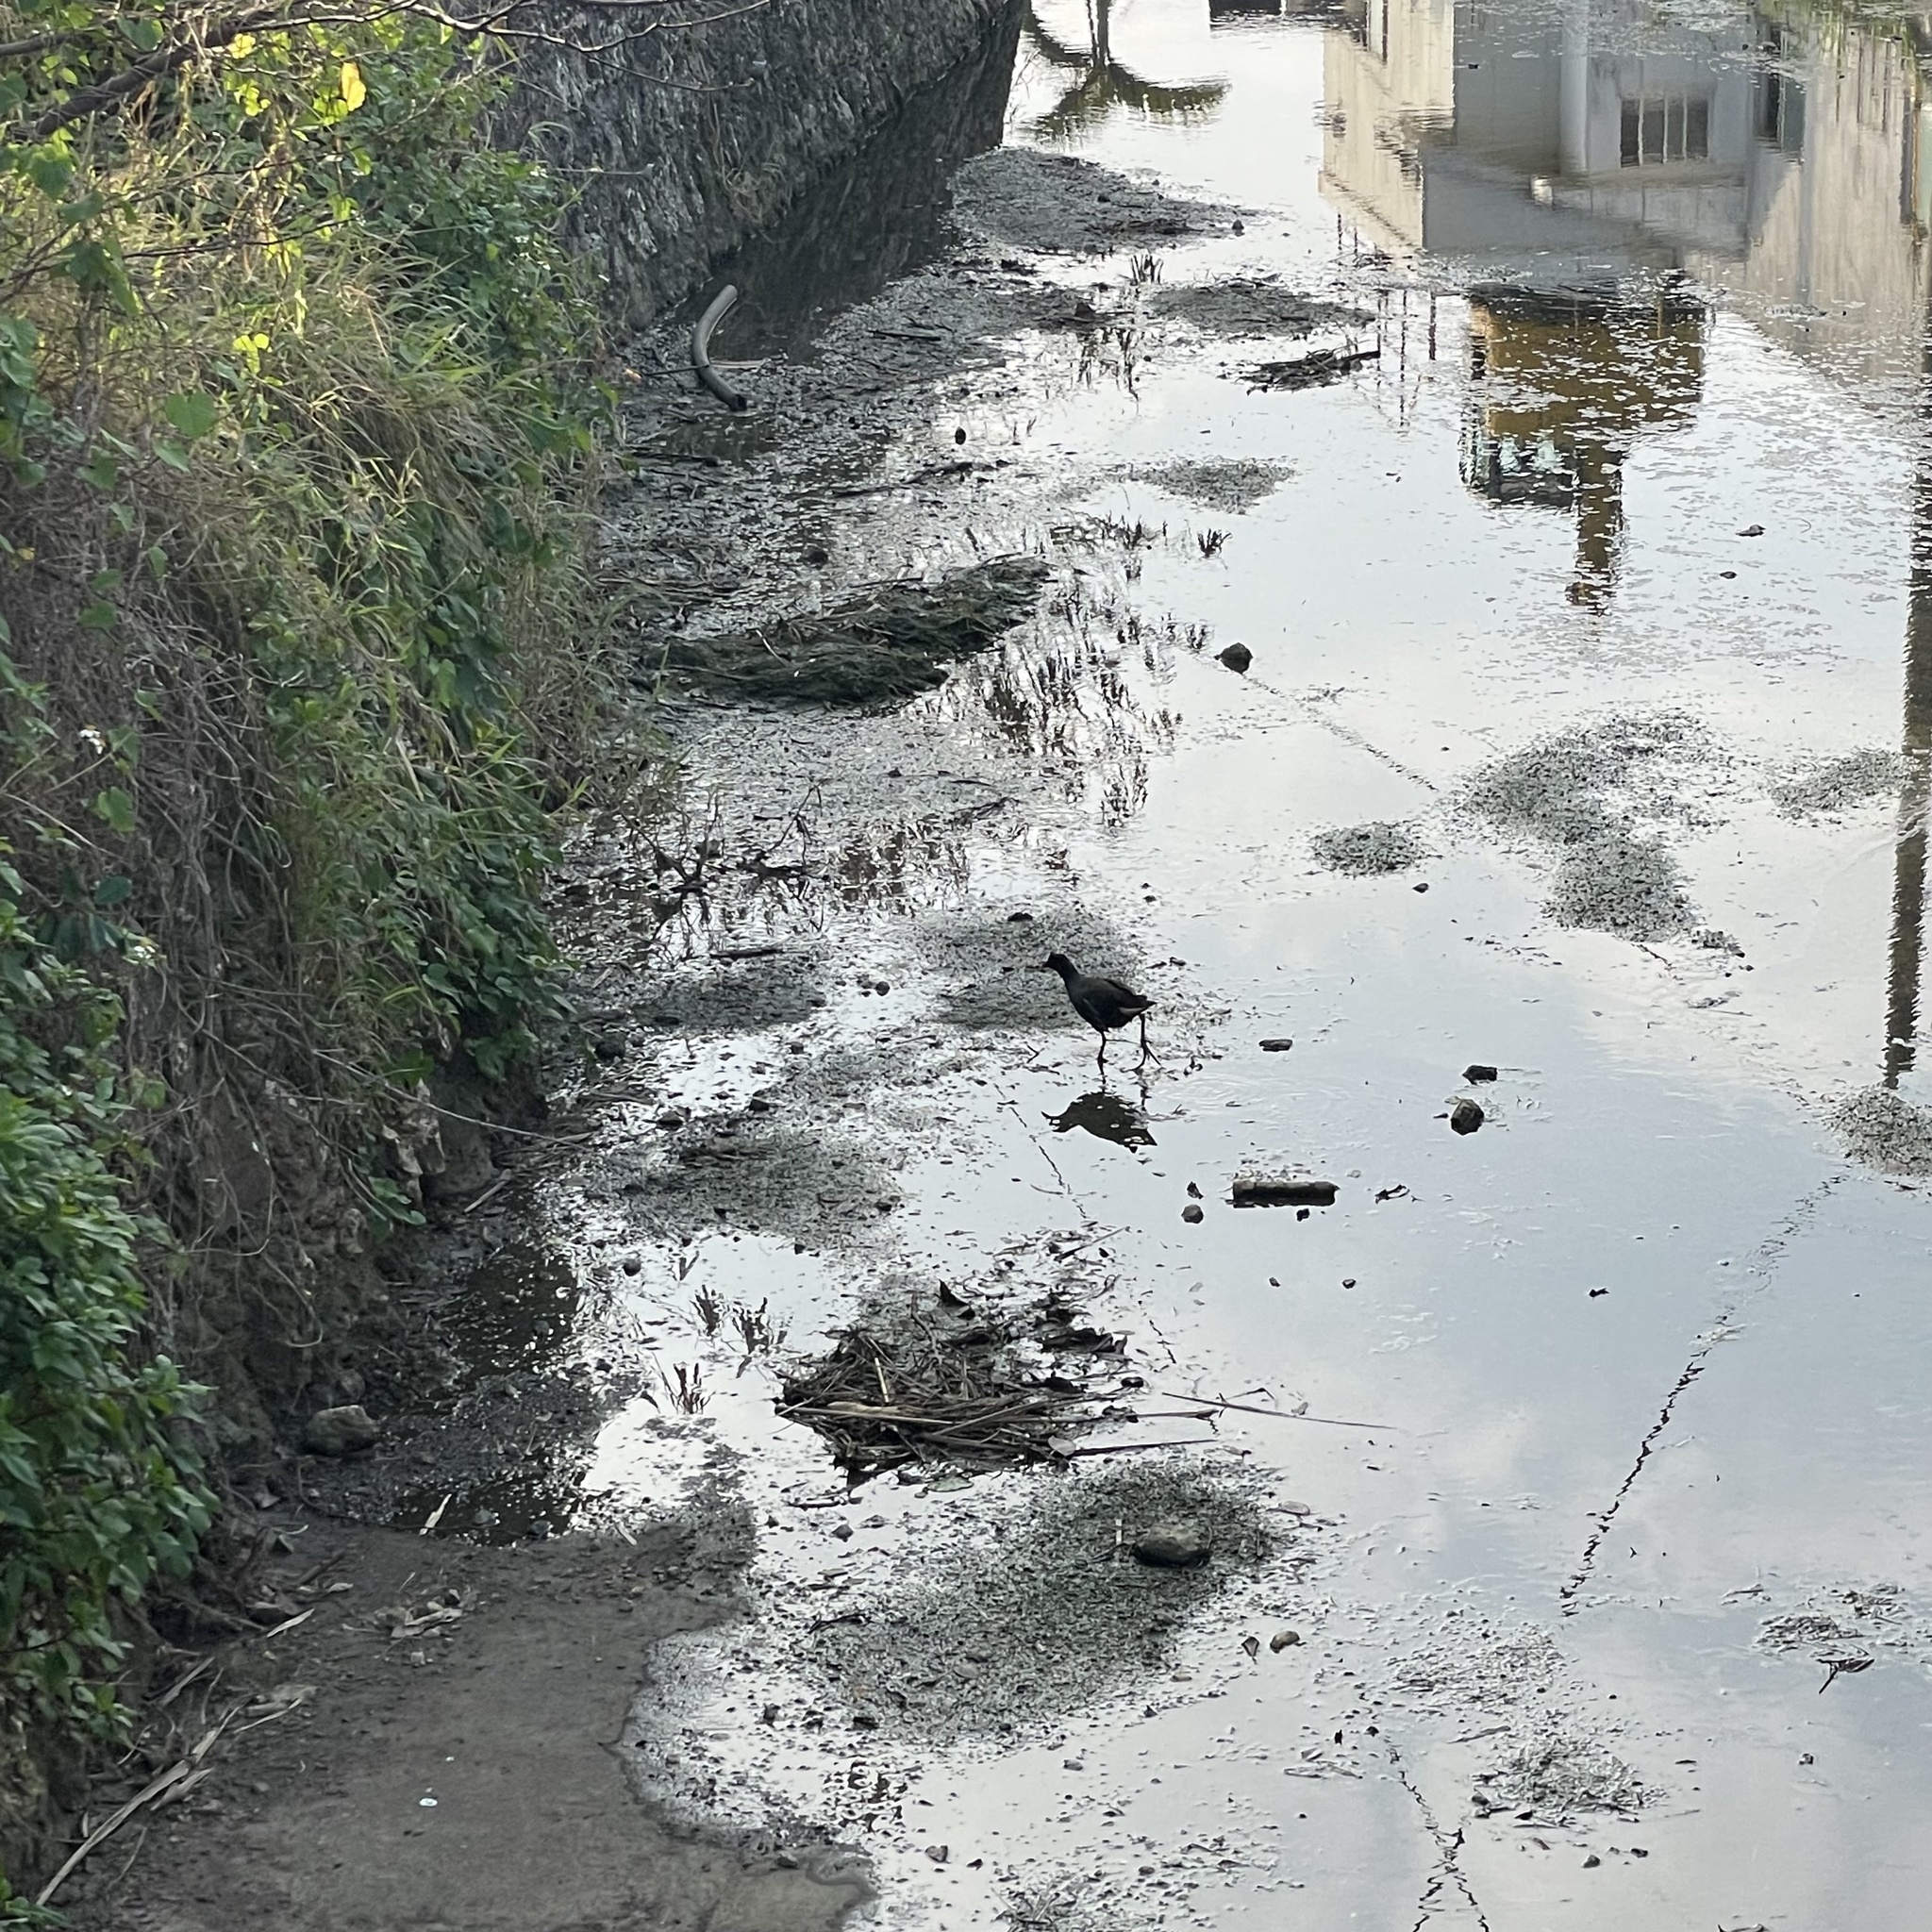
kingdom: Animalia
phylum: Chordata
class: Aves
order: Gruiformes
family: Rallidae
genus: Gallinula
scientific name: Gallinula chloropus
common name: Common moorhen
